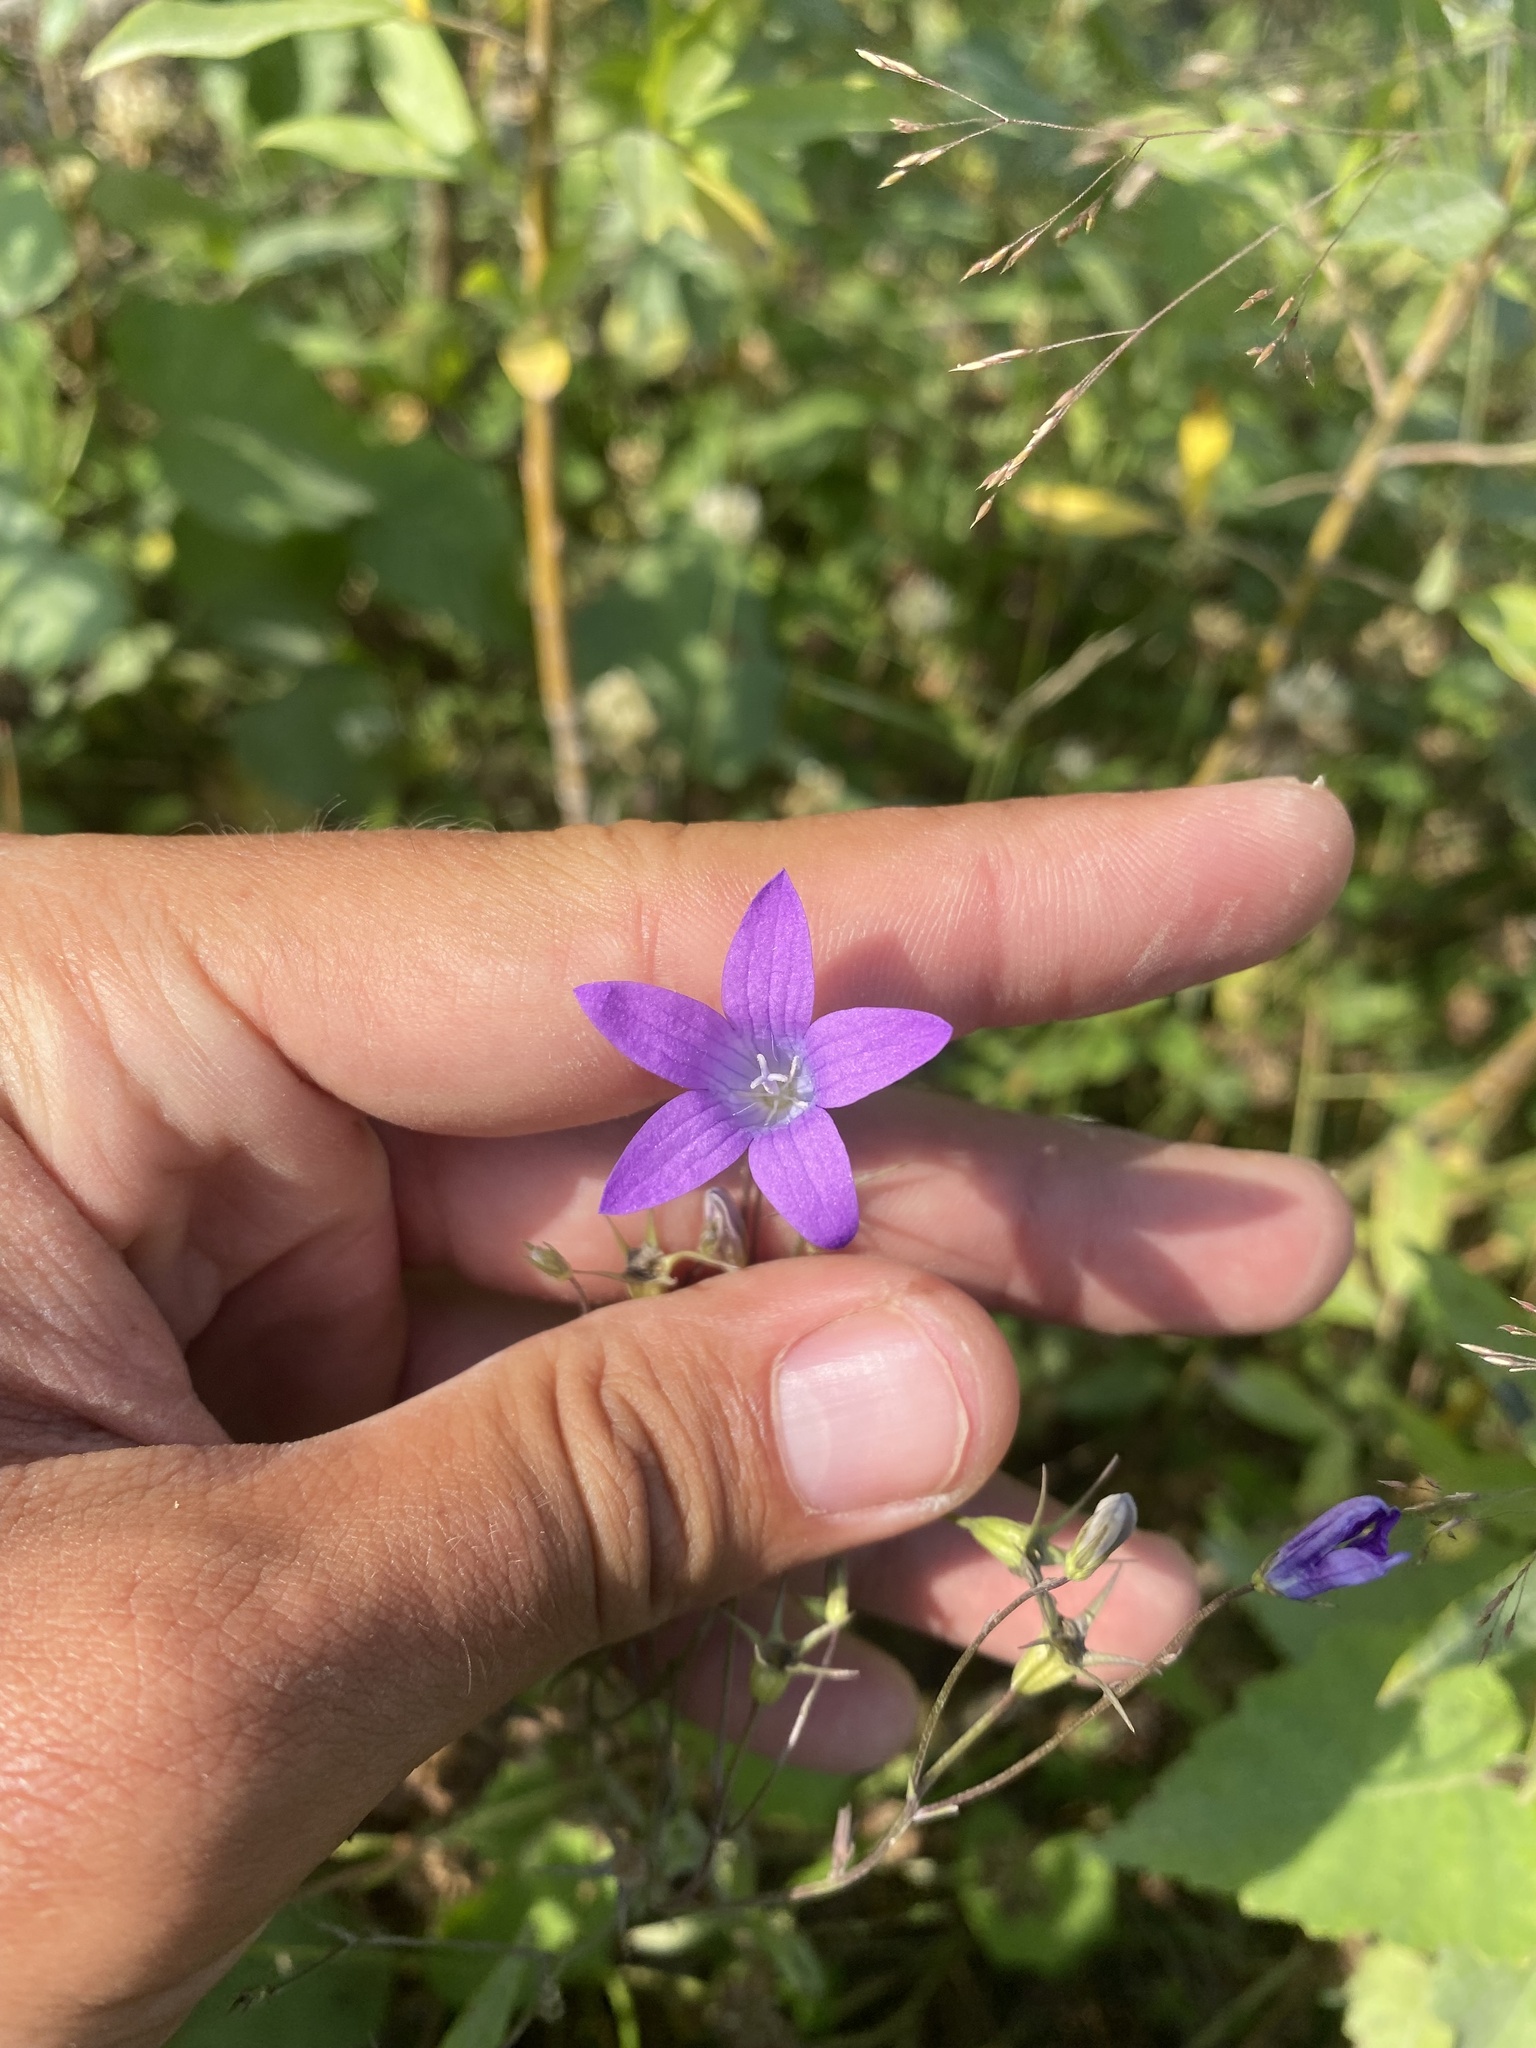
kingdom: Plantae
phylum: Tracheophyta
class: Magnoliopsida
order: Asterales
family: Campanulaceae
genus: Campanula
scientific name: Campanula patula
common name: Spreading bellflower
